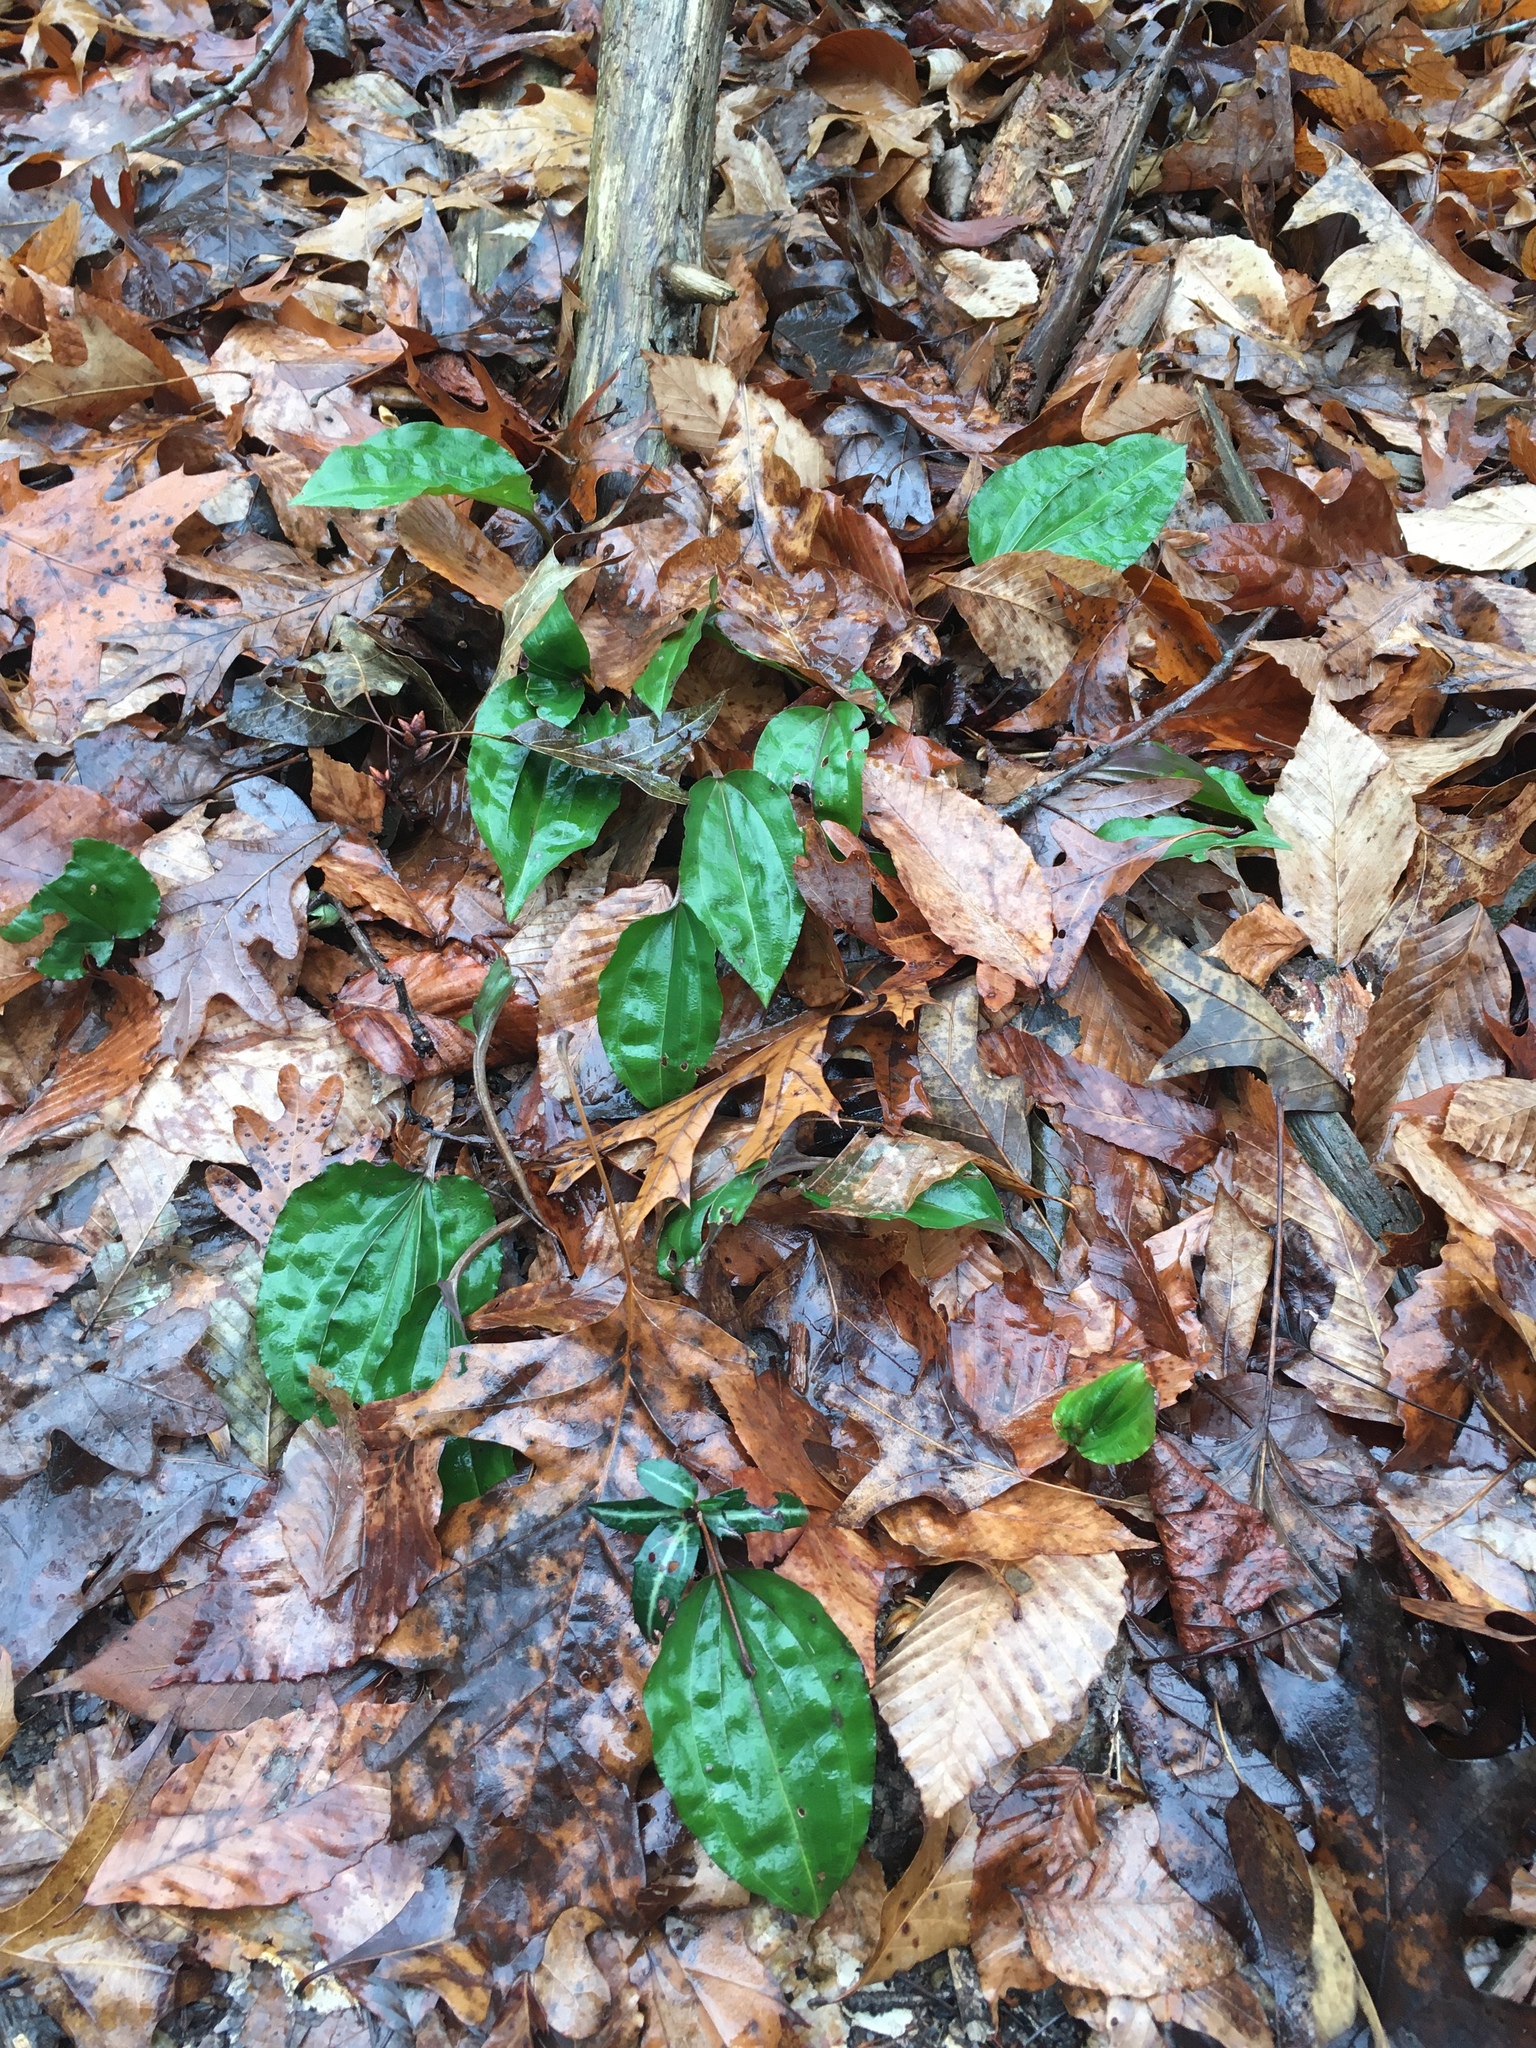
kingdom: Plantae
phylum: Tracheophyta
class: Liliopsida
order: Asparagales
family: Orchidaceae
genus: Tipularia
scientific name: Tipularia discolor
